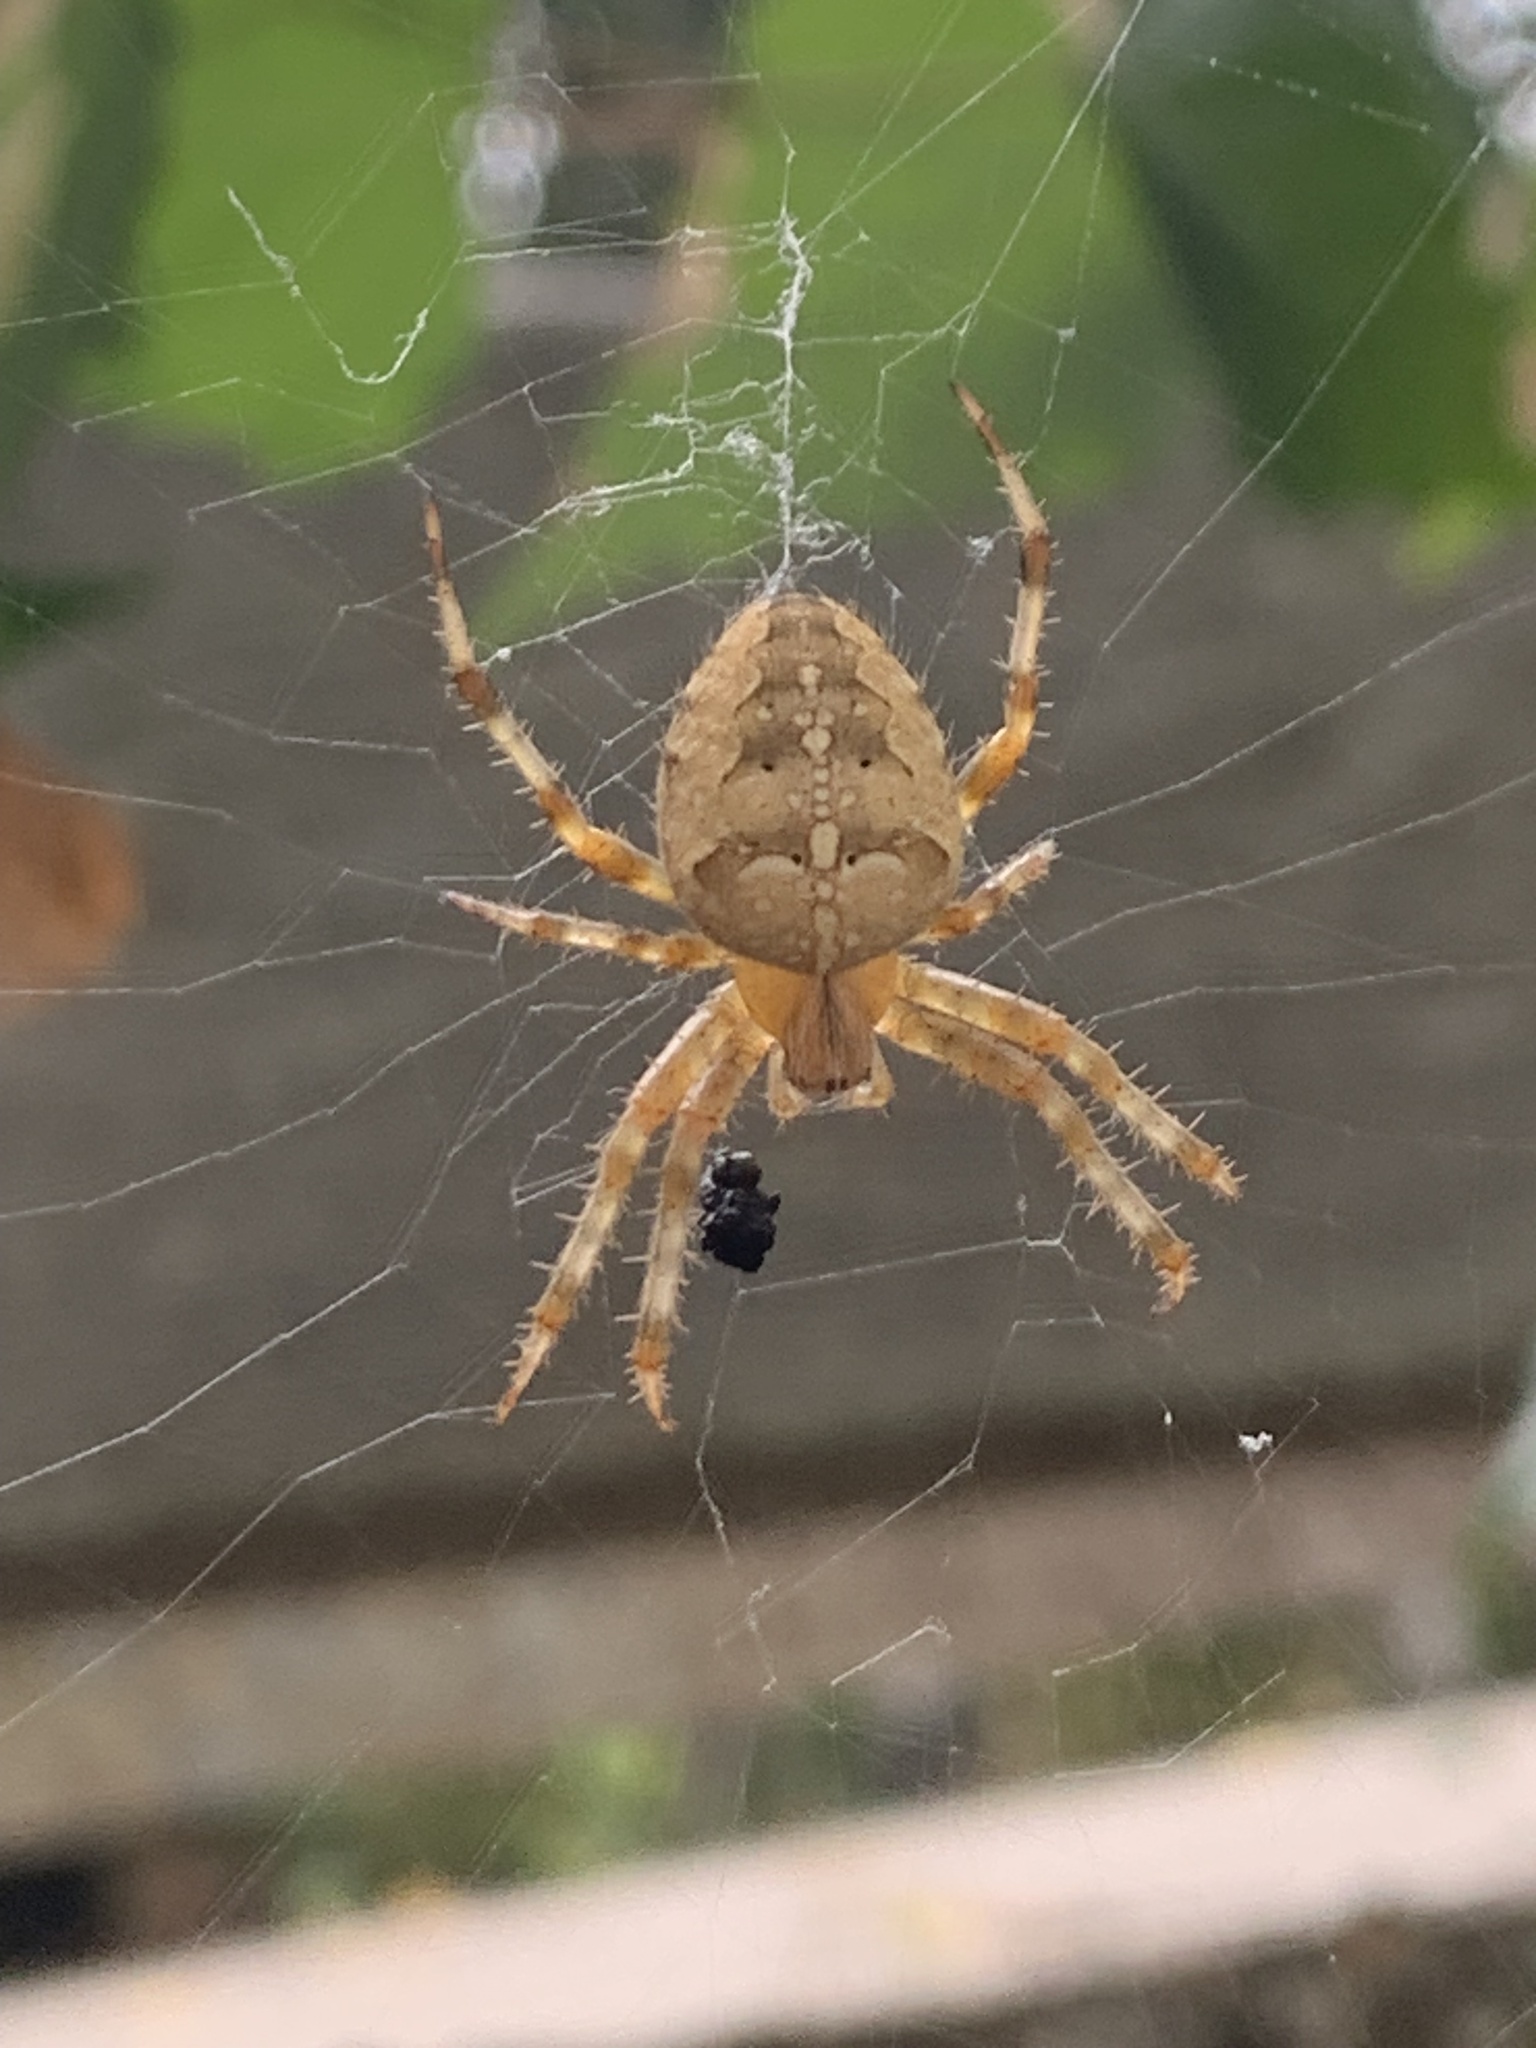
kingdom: Animalia
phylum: Arthropoda
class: Arachnida
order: Araneae
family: Araneidae
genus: Araneus
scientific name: Araneus diadematus
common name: Cross orbweaver
